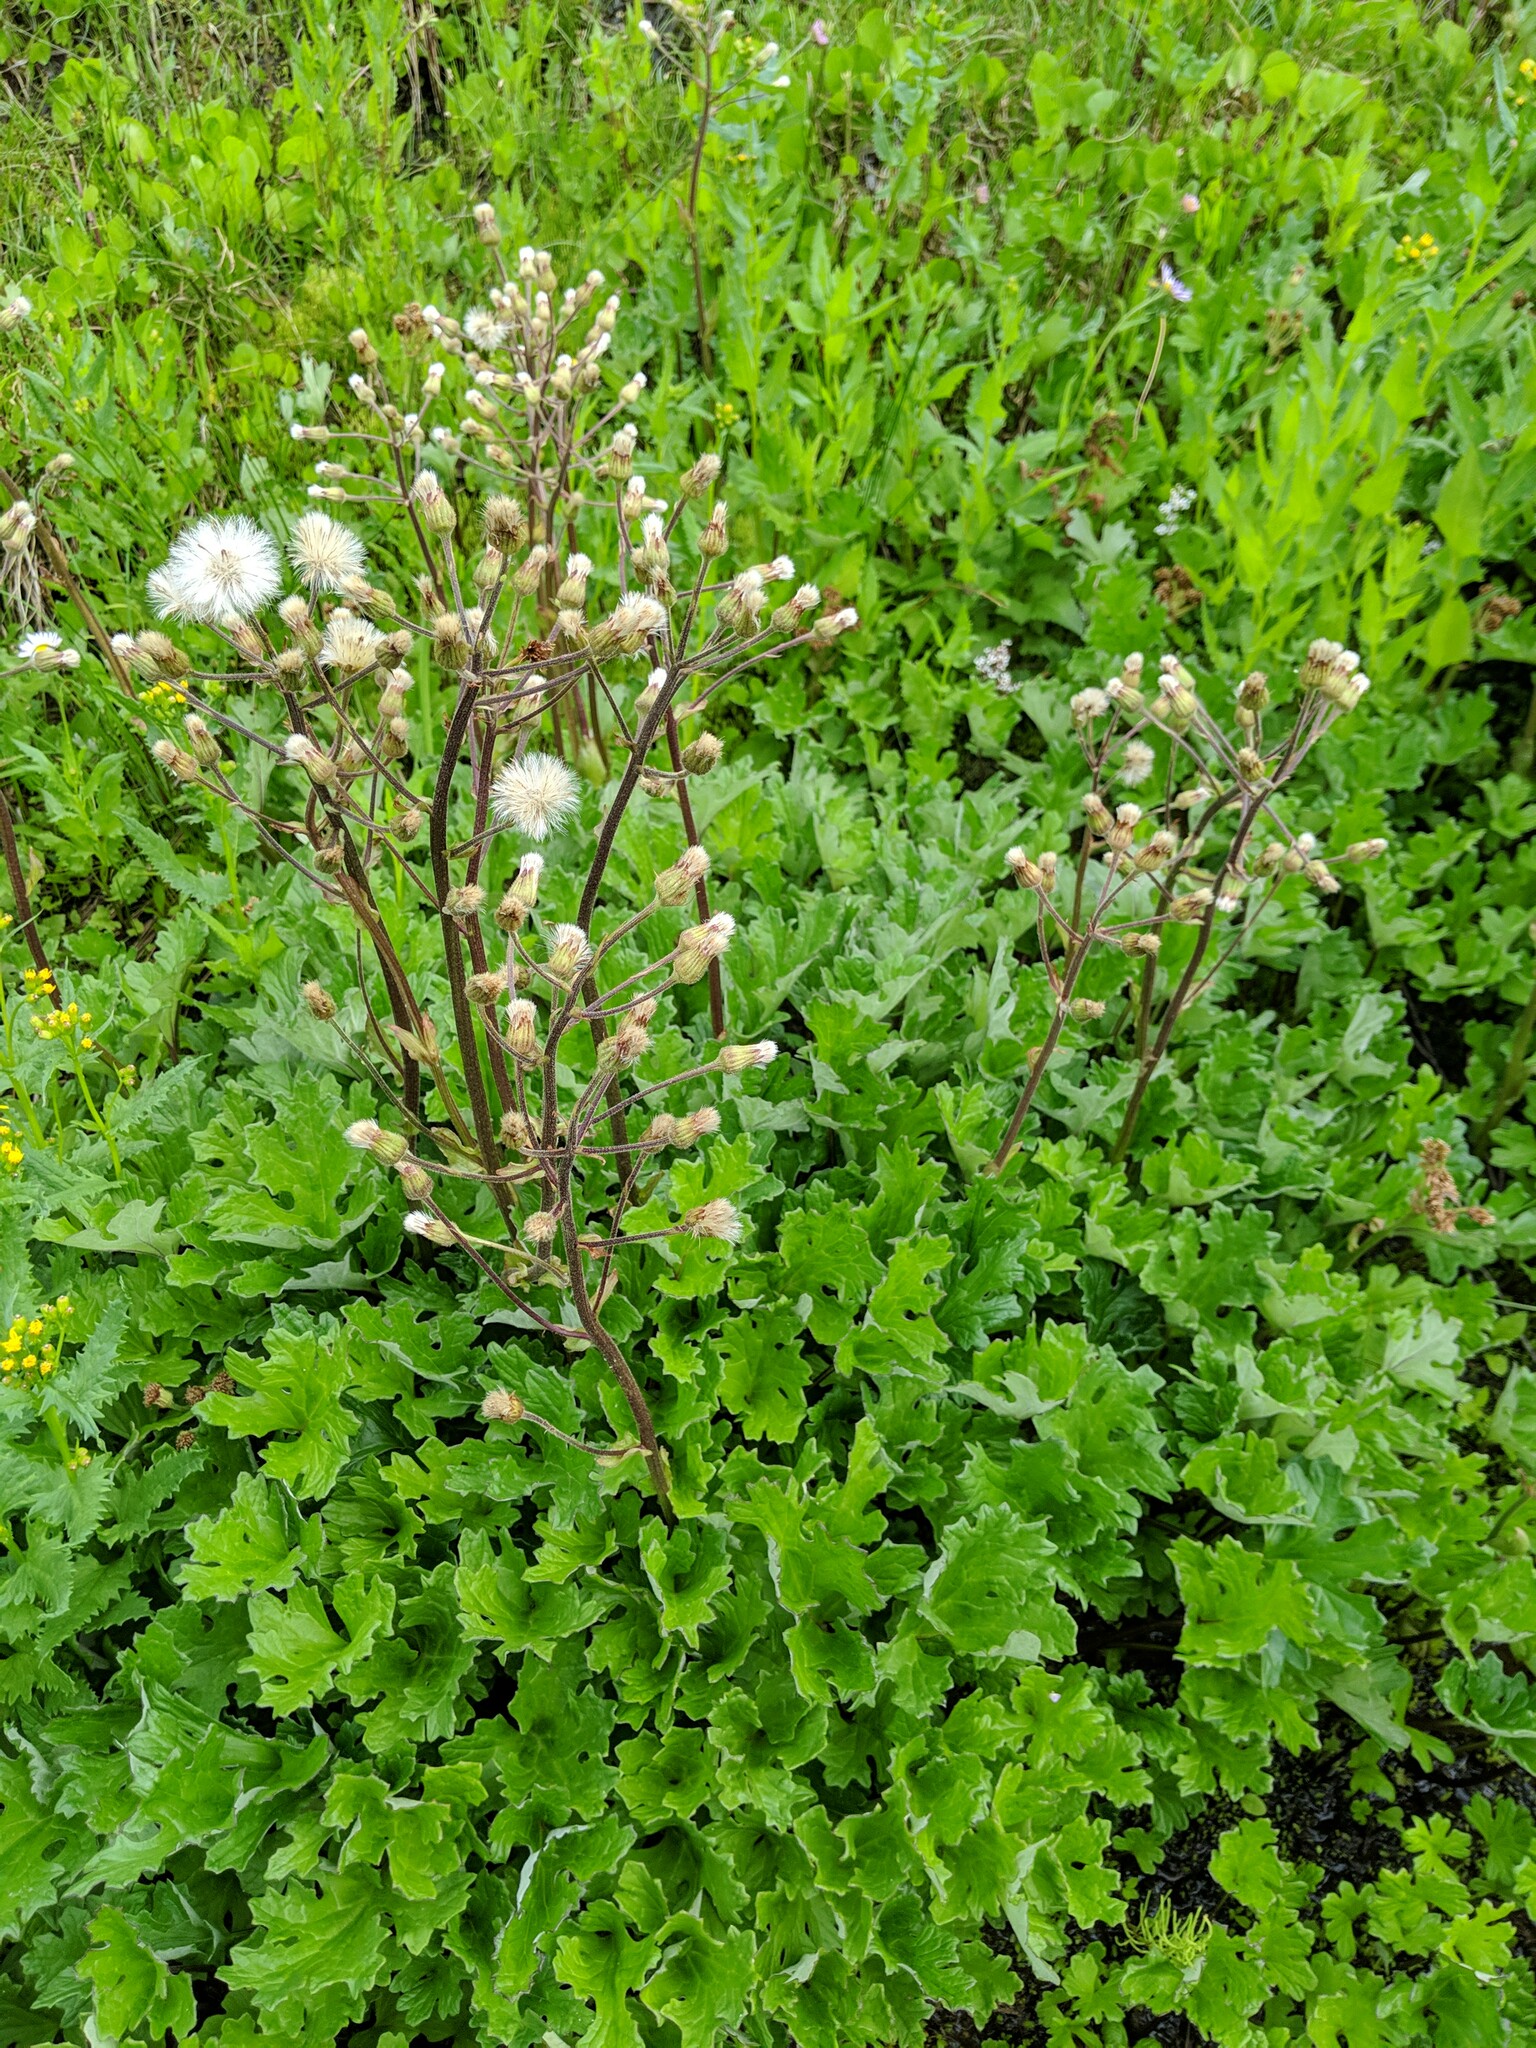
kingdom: Plantae
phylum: Tracheophyta
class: Magnoliopsida
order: Asterales
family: Asteraceae
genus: Petasites
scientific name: Petasites frigidus
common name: Arctic butterbur
